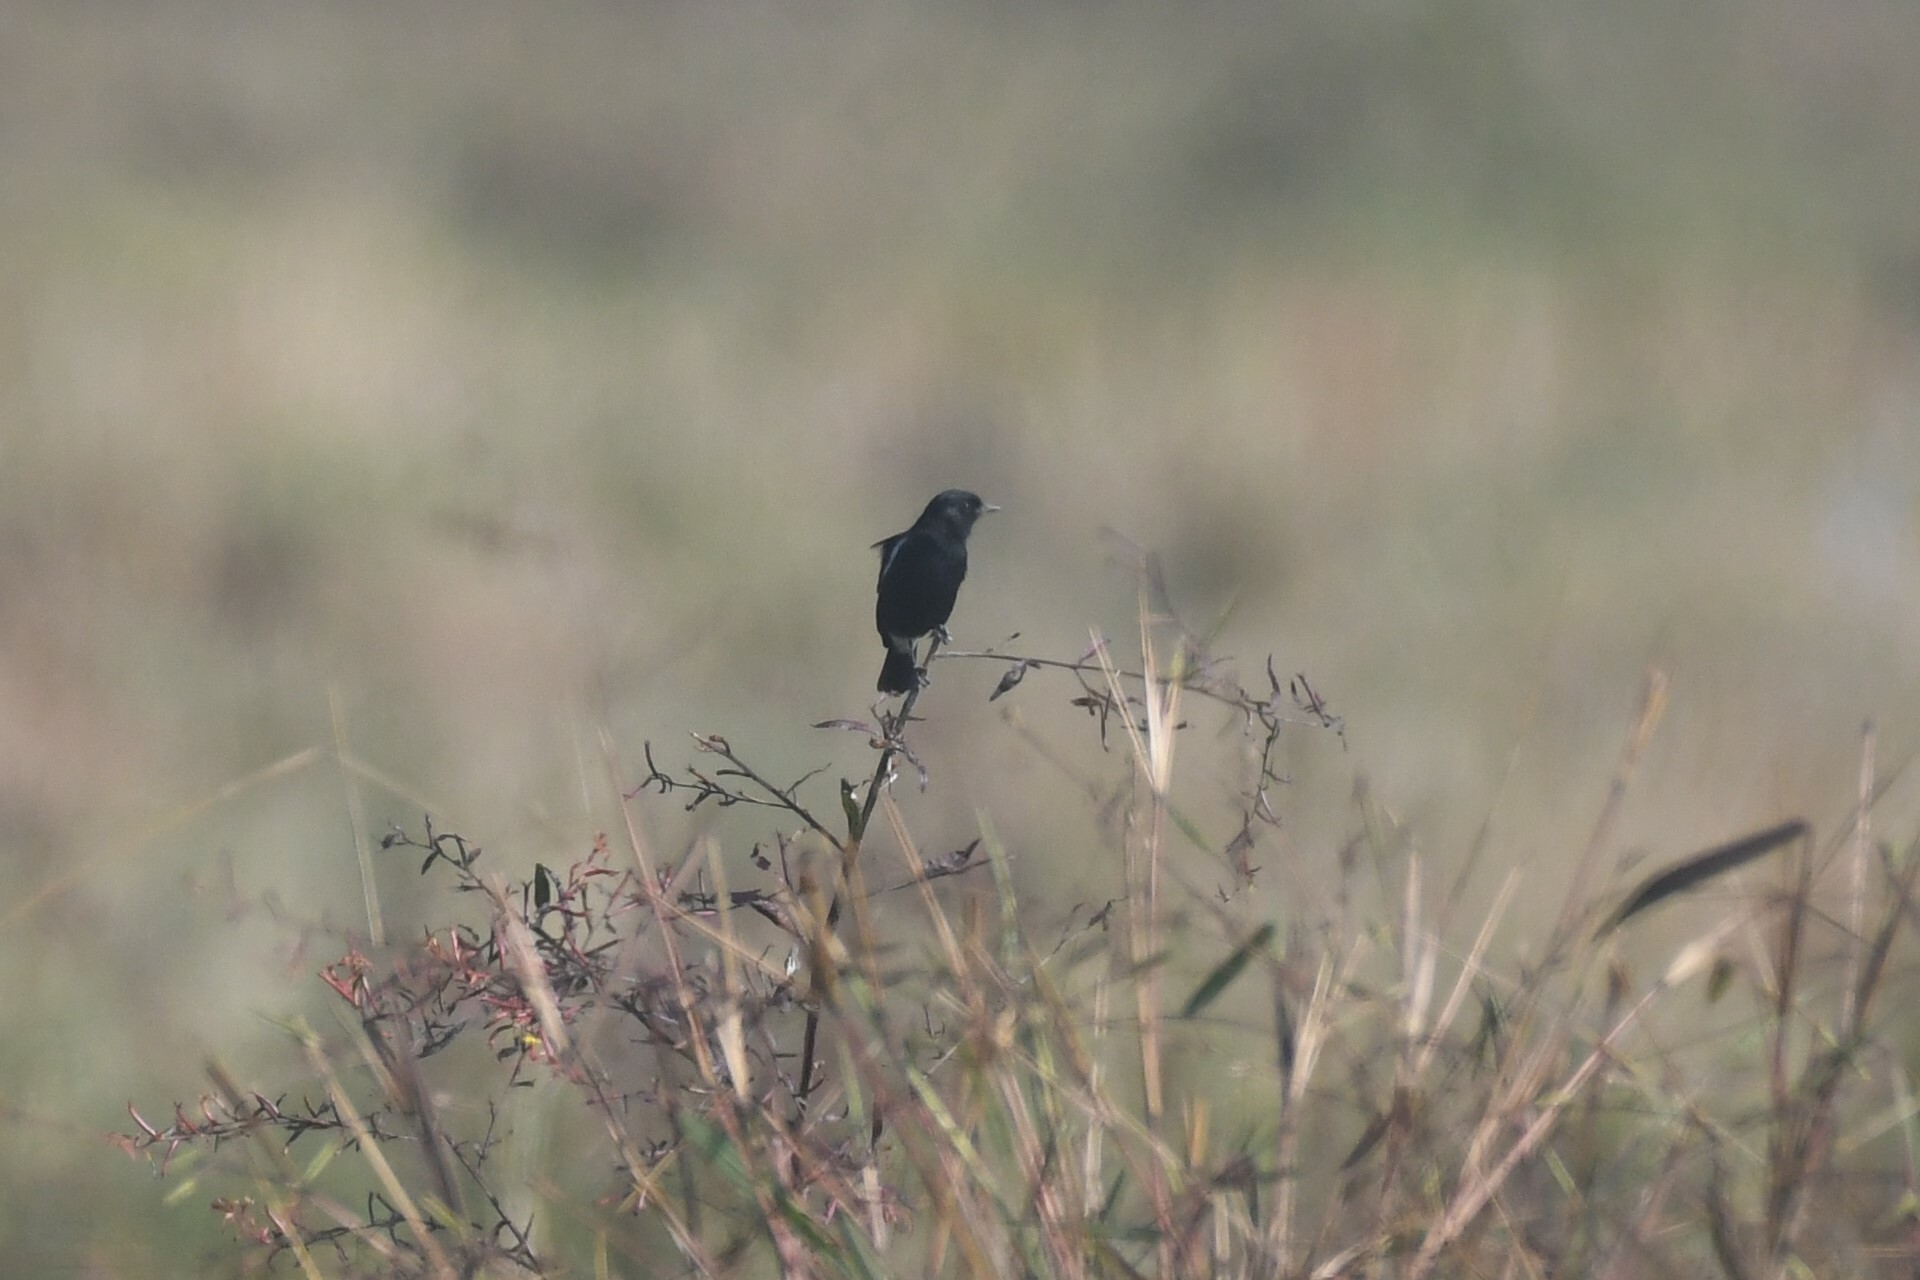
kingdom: Animalia
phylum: Chordata
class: Aves
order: Passeriformes
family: Muscicapidae
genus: Saxicola
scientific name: Saxicola caprata
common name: Pied bush chat
